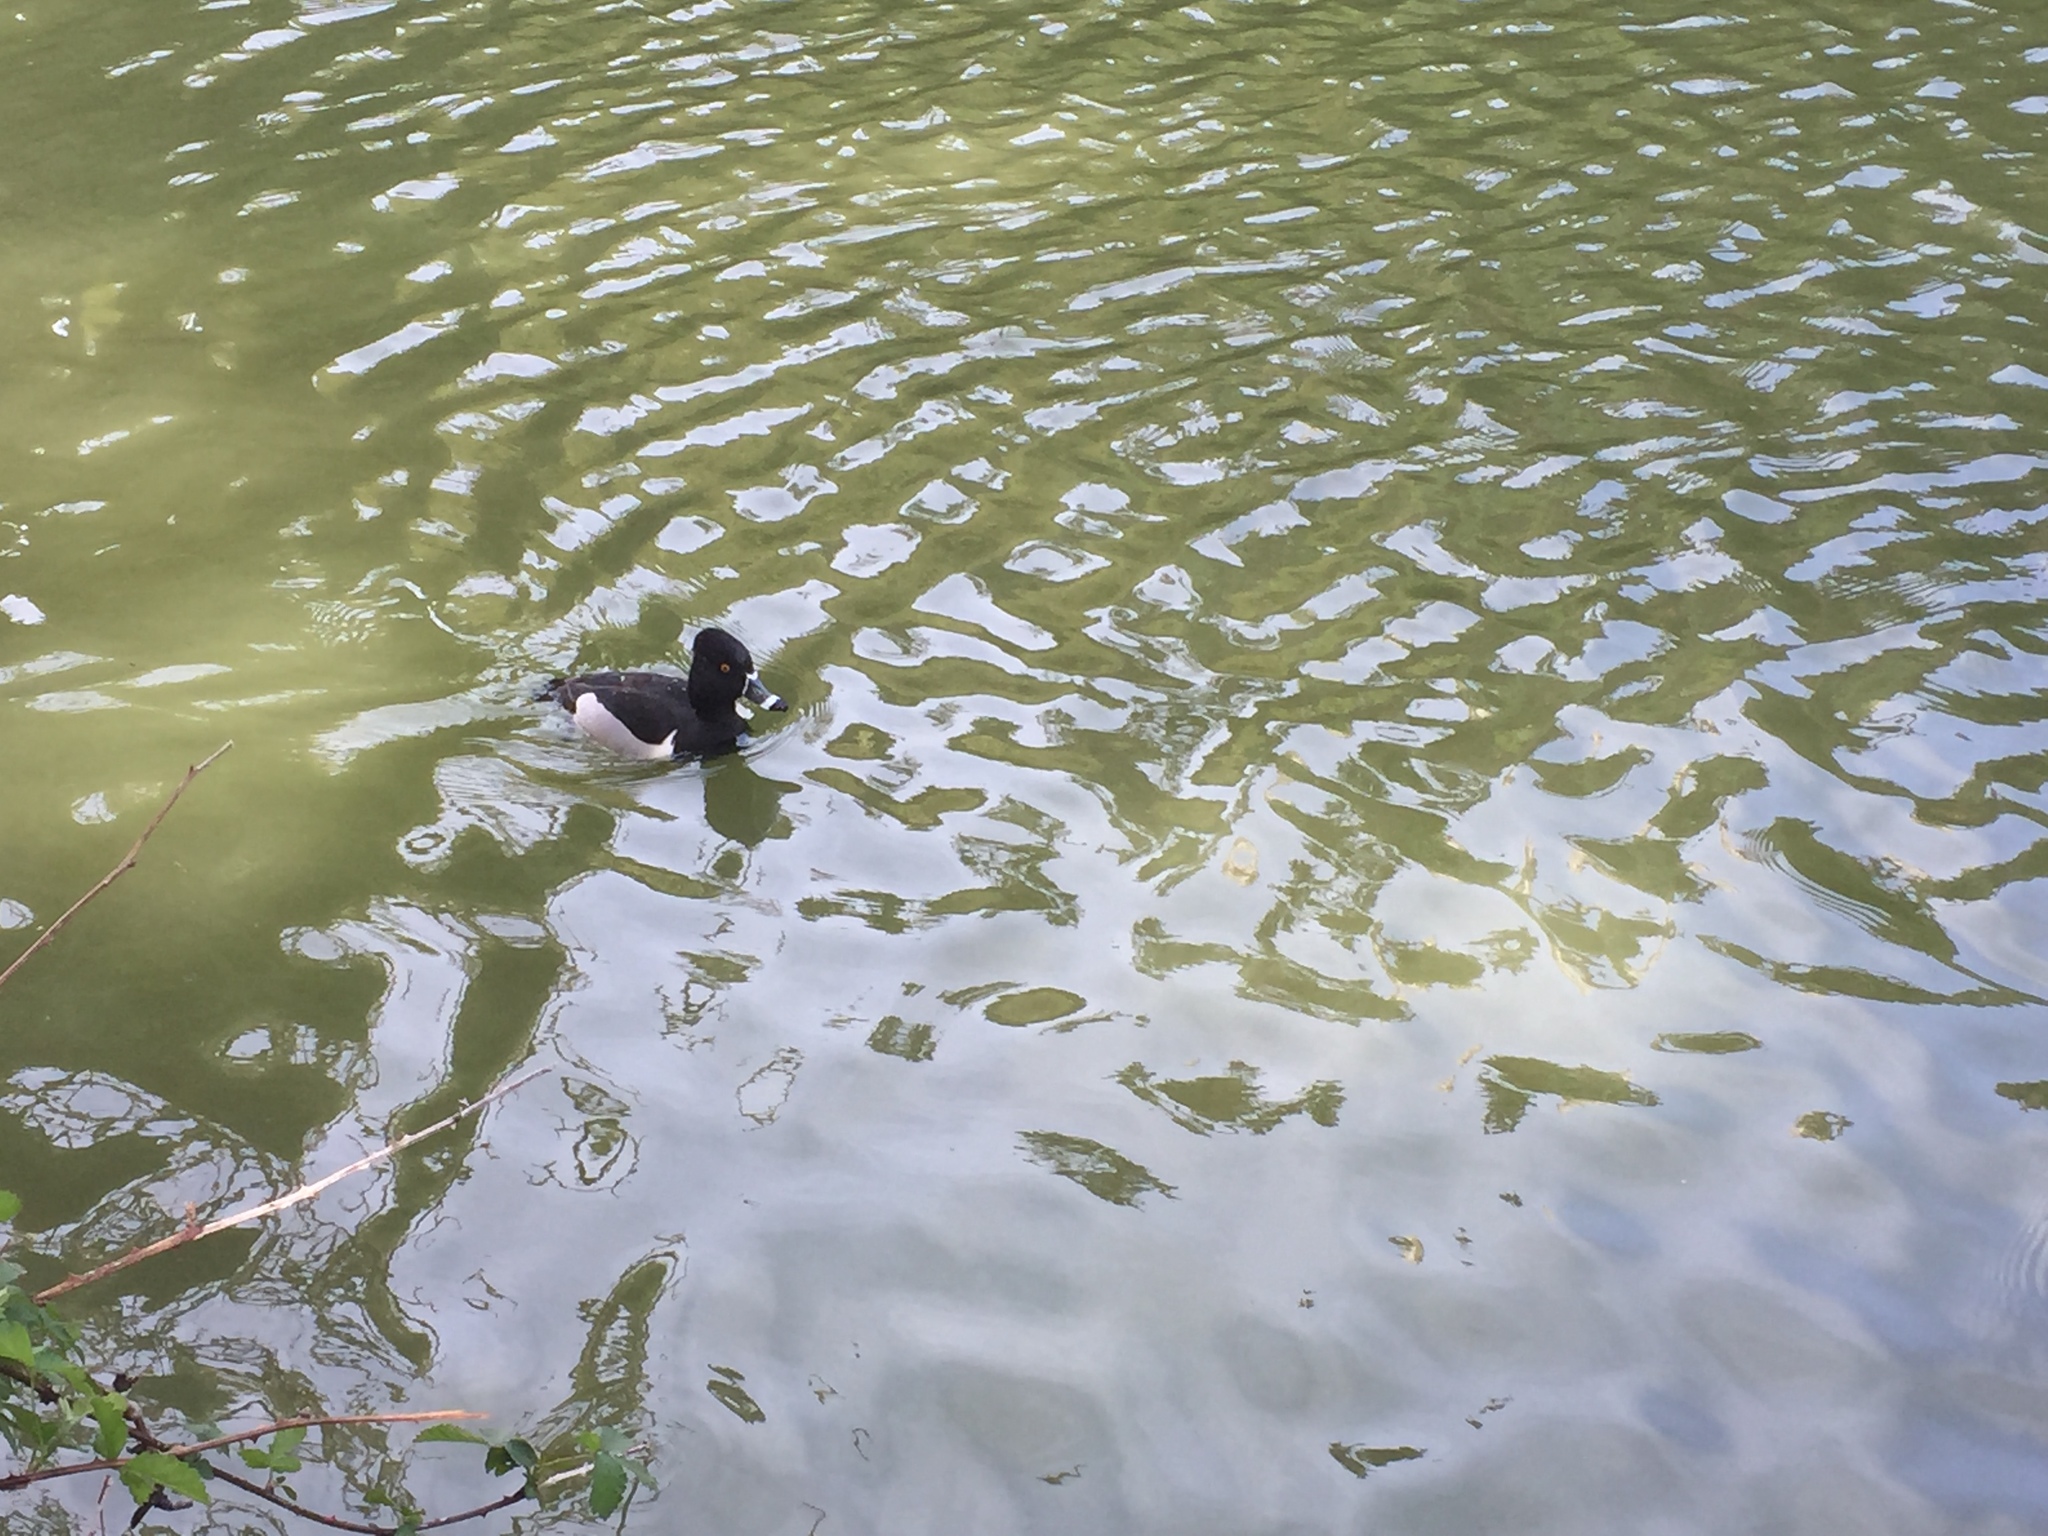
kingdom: Animalia
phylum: Chordata
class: Aves
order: Anseriformes
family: Anatidae
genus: Aythya
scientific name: Aythya collaris
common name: Ring-necked duck
